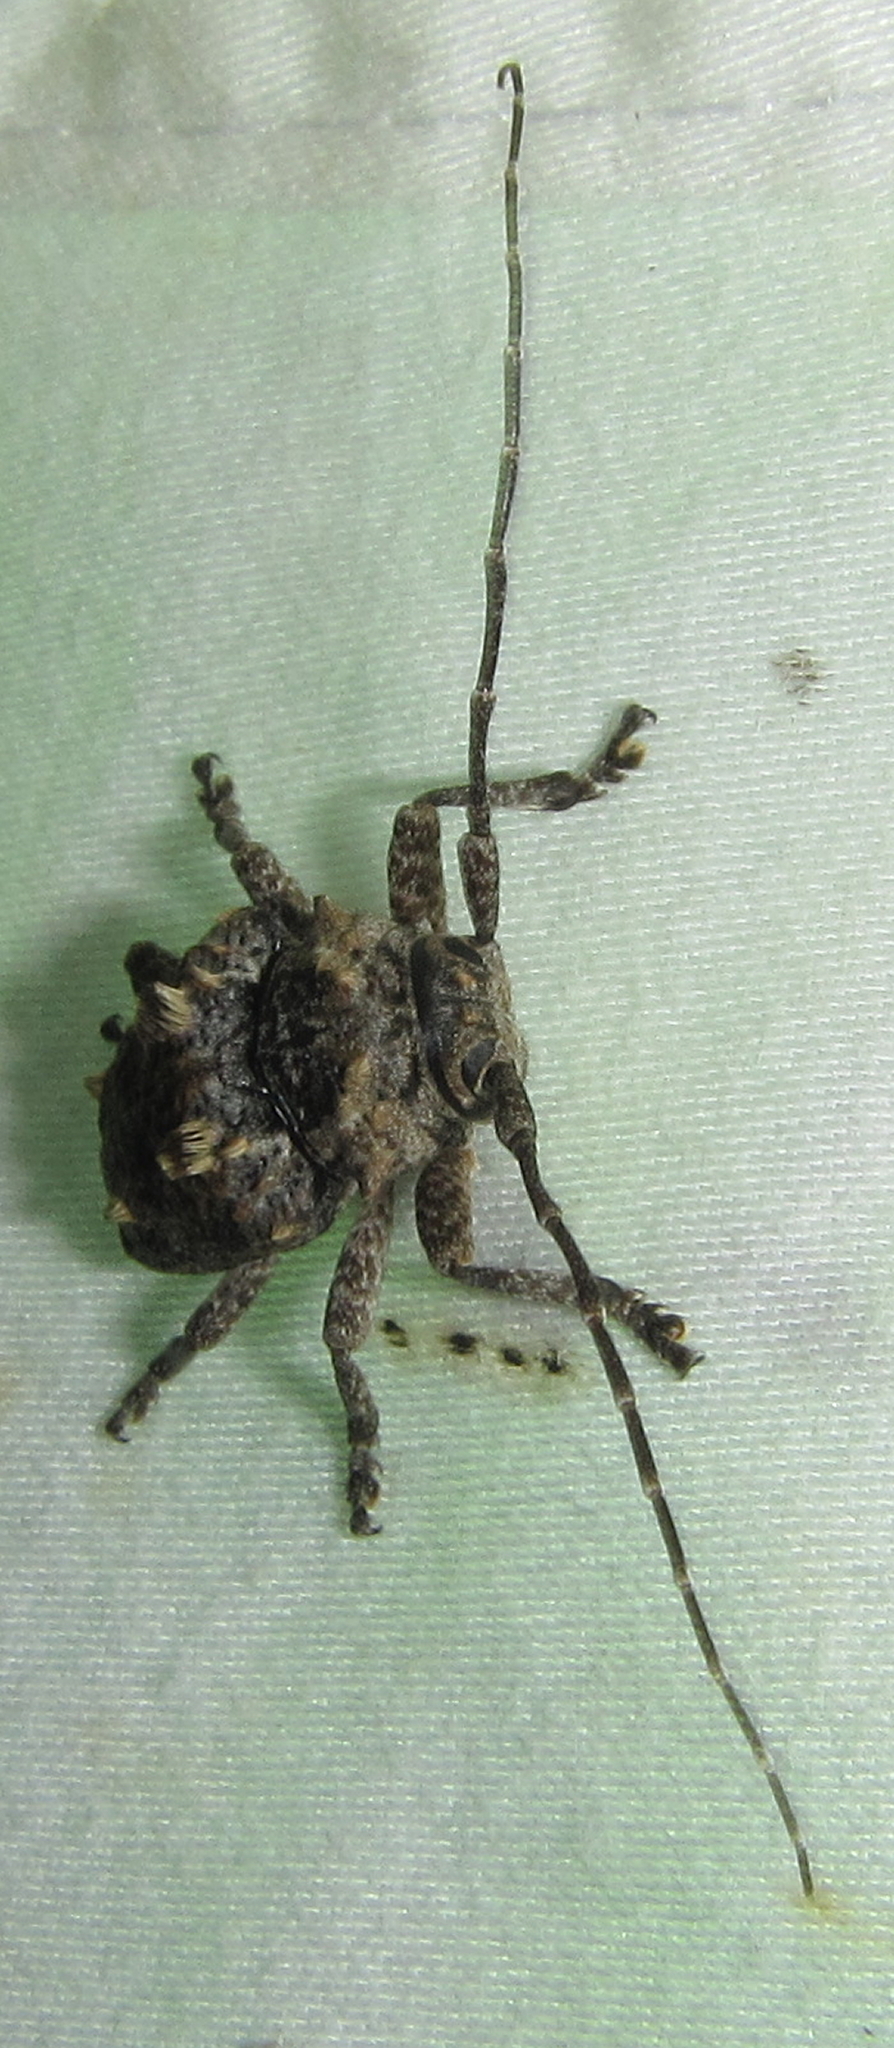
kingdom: Animalia
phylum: Arthropoda
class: Insecta
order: Coleoptera
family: Cerambycidae
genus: Dichostates
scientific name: Dichostates compactus
